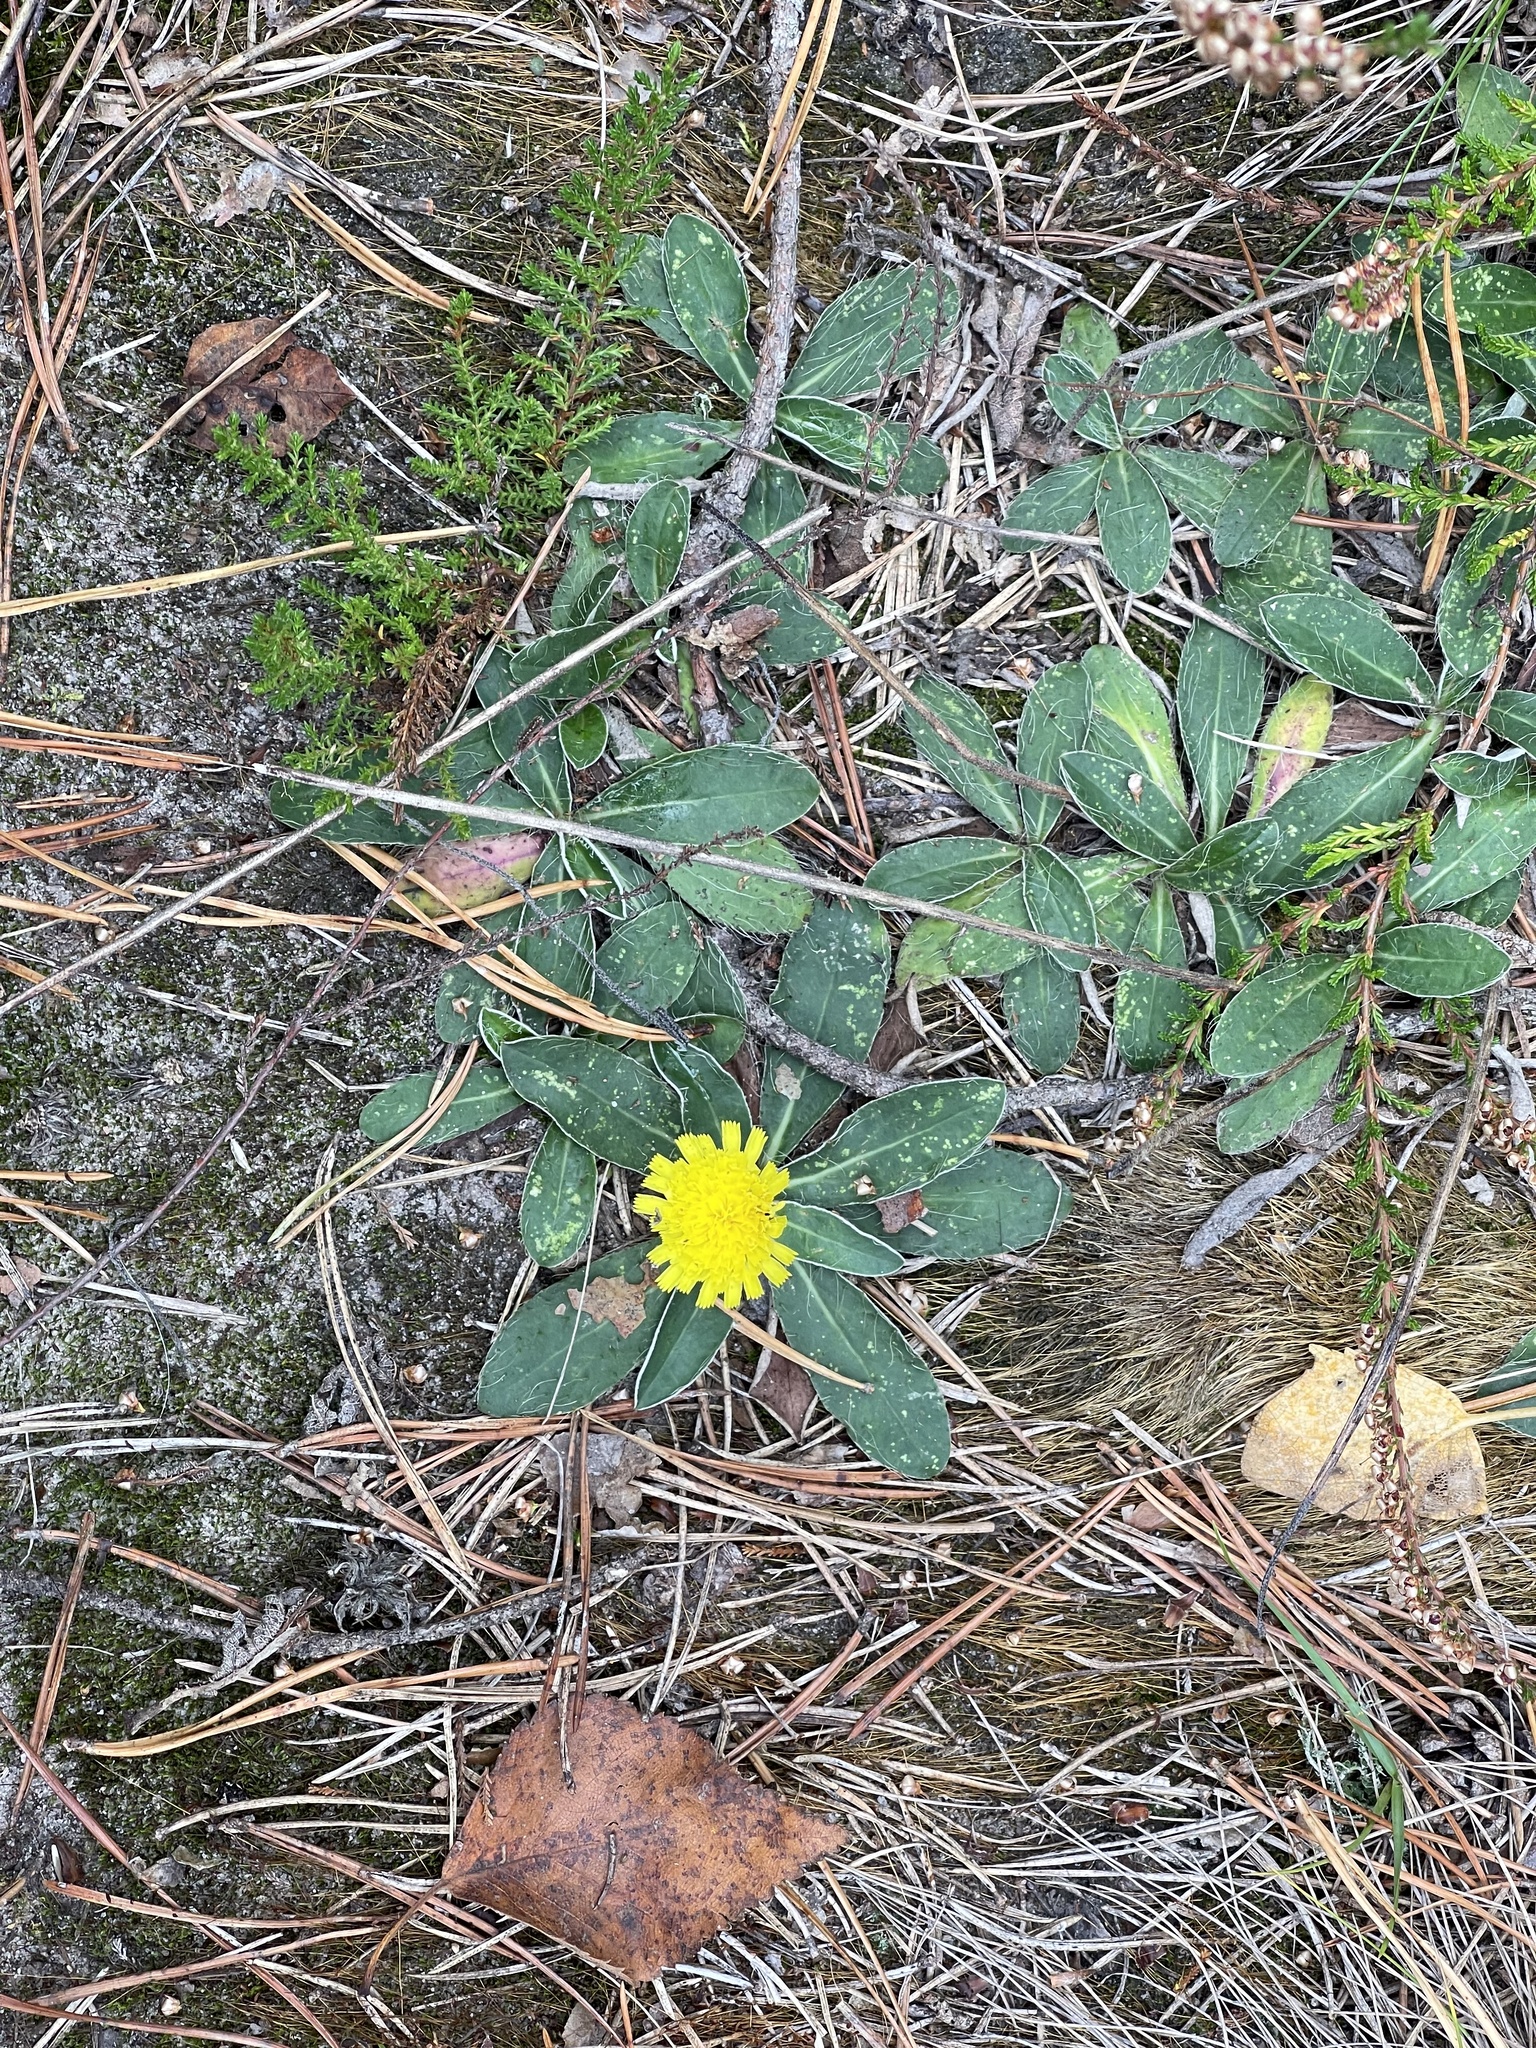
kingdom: Plantae
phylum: Tracheophyta
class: Magnoliopsida
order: Asterales
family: Asteraceae
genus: Pilosella
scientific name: Pilosella officinarum
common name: Mouse-ear hawkweed
